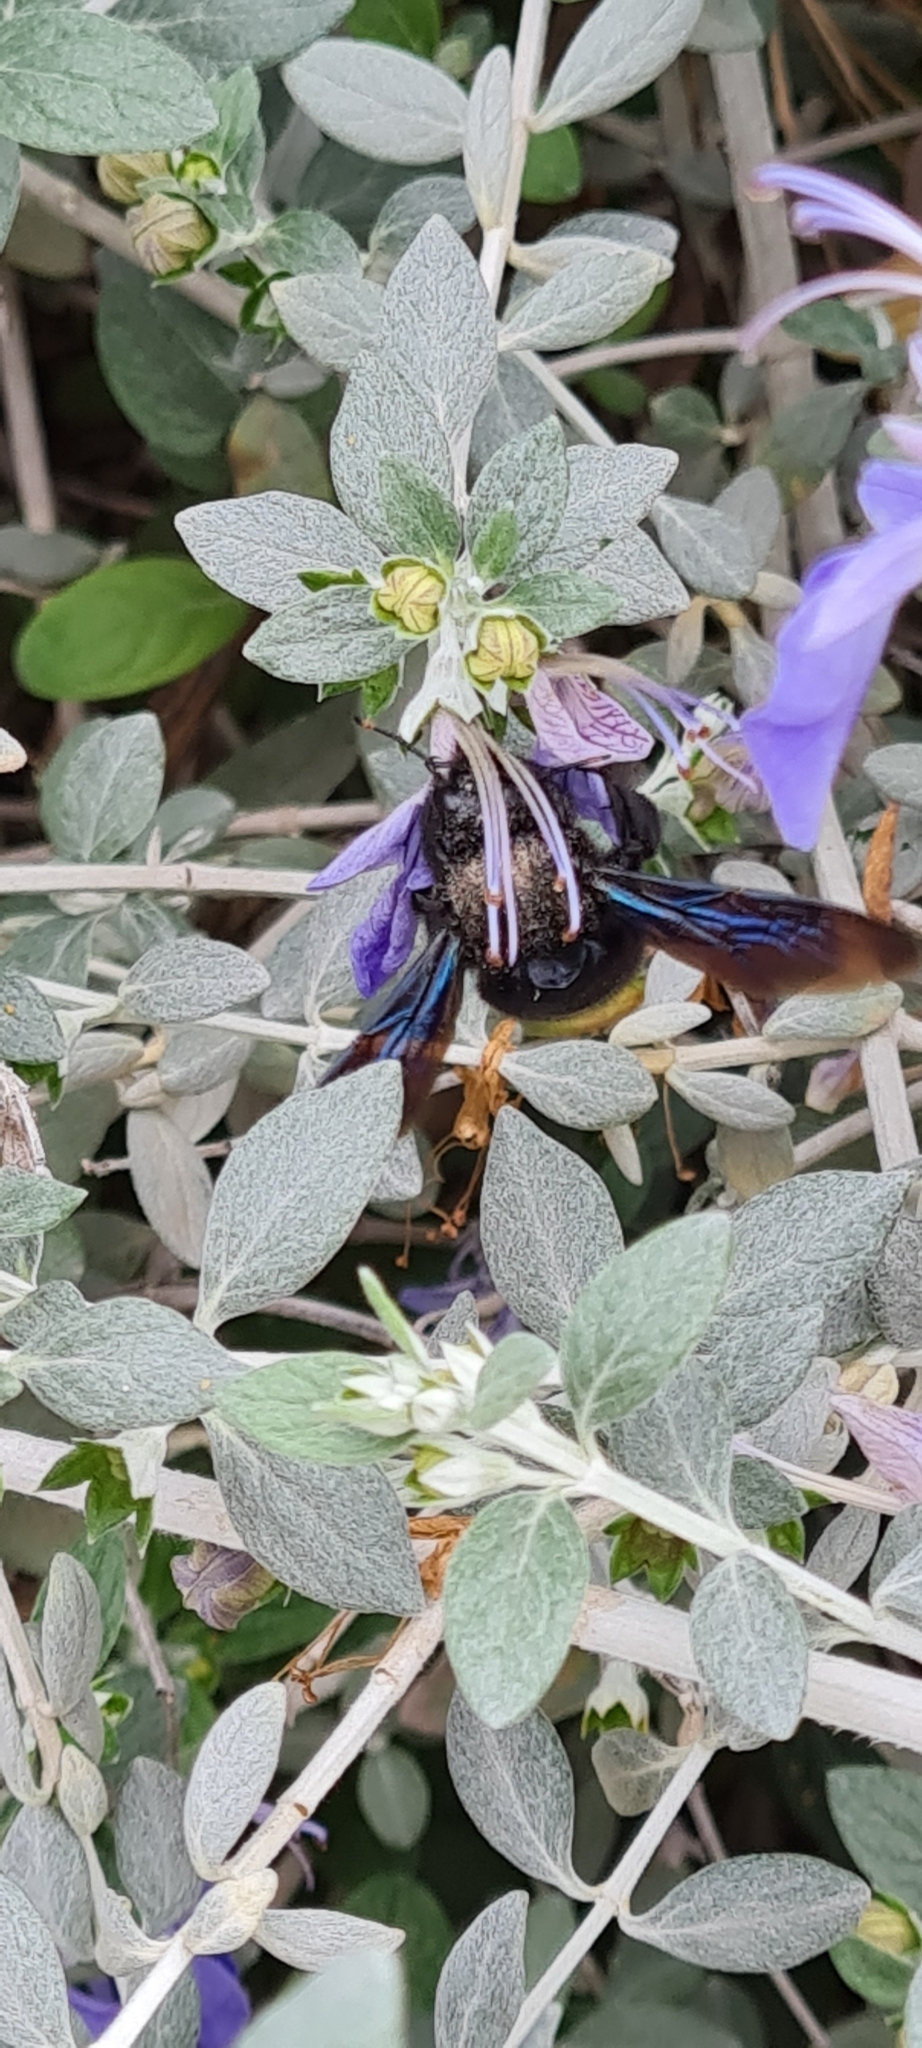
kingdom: Animalia
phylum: Arthropoda
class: Insecta
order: Hymenoptera
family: Apidae
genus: Xylocopa
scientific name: Xylocopa violacea
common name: Violet carpenter bee
